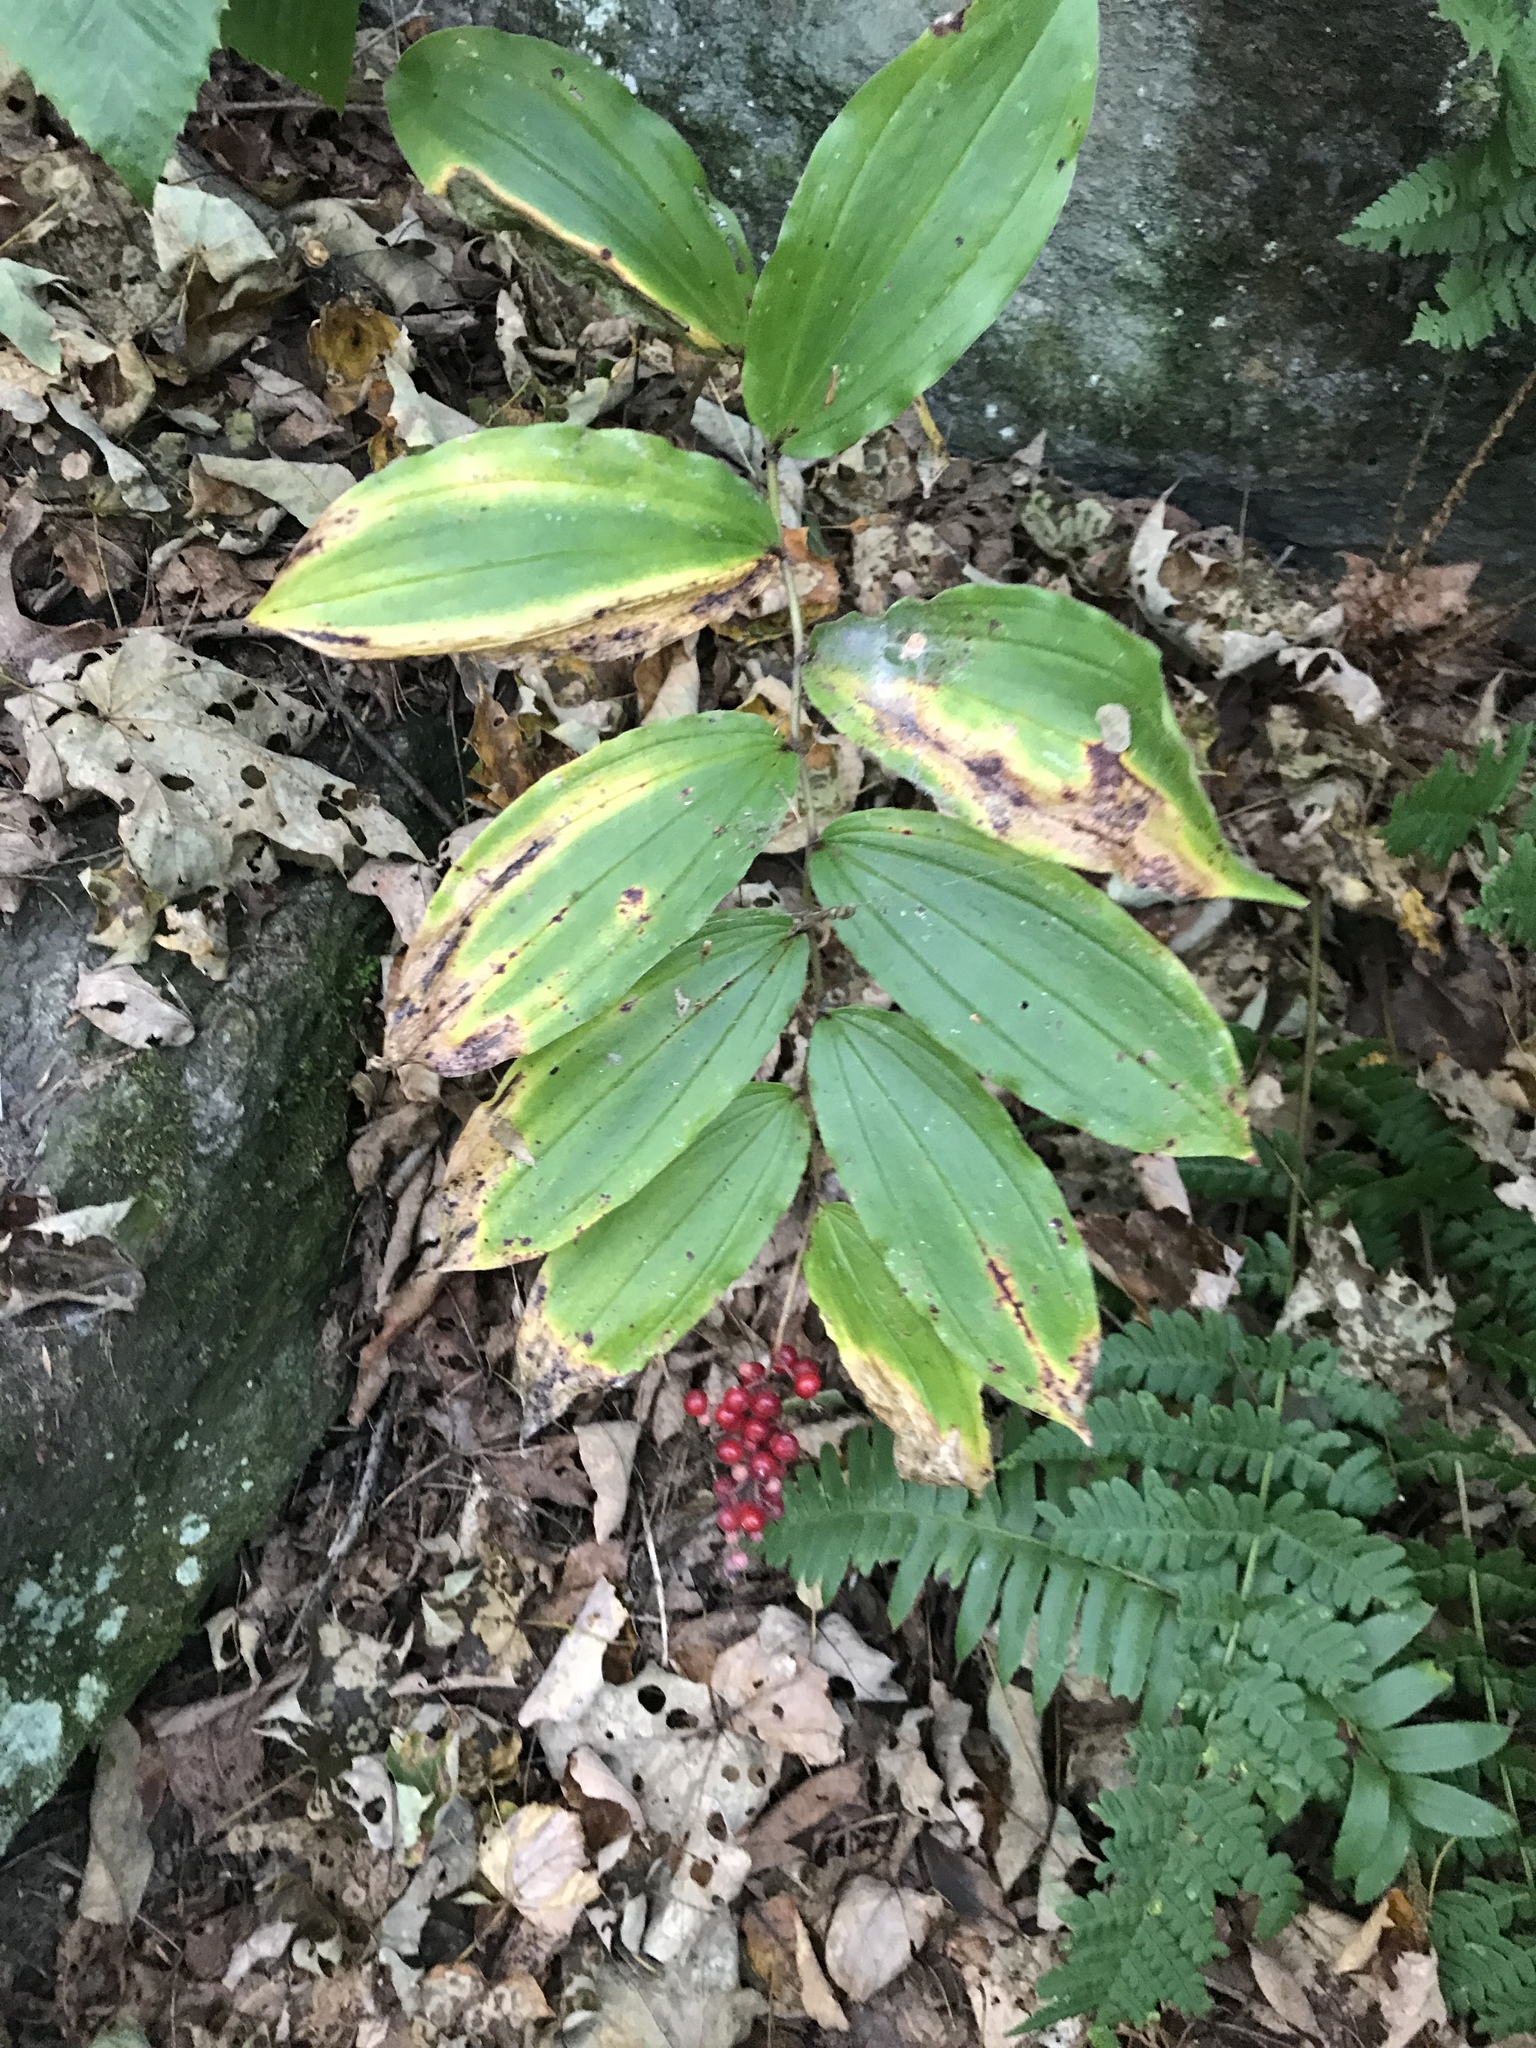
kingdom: Plantae
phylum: Tracheophyta
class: Liliopsida
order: Asparagales
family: Asparagaceae
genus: Maianthemum
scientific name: Maianthemum racemosum
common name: False spikenard
